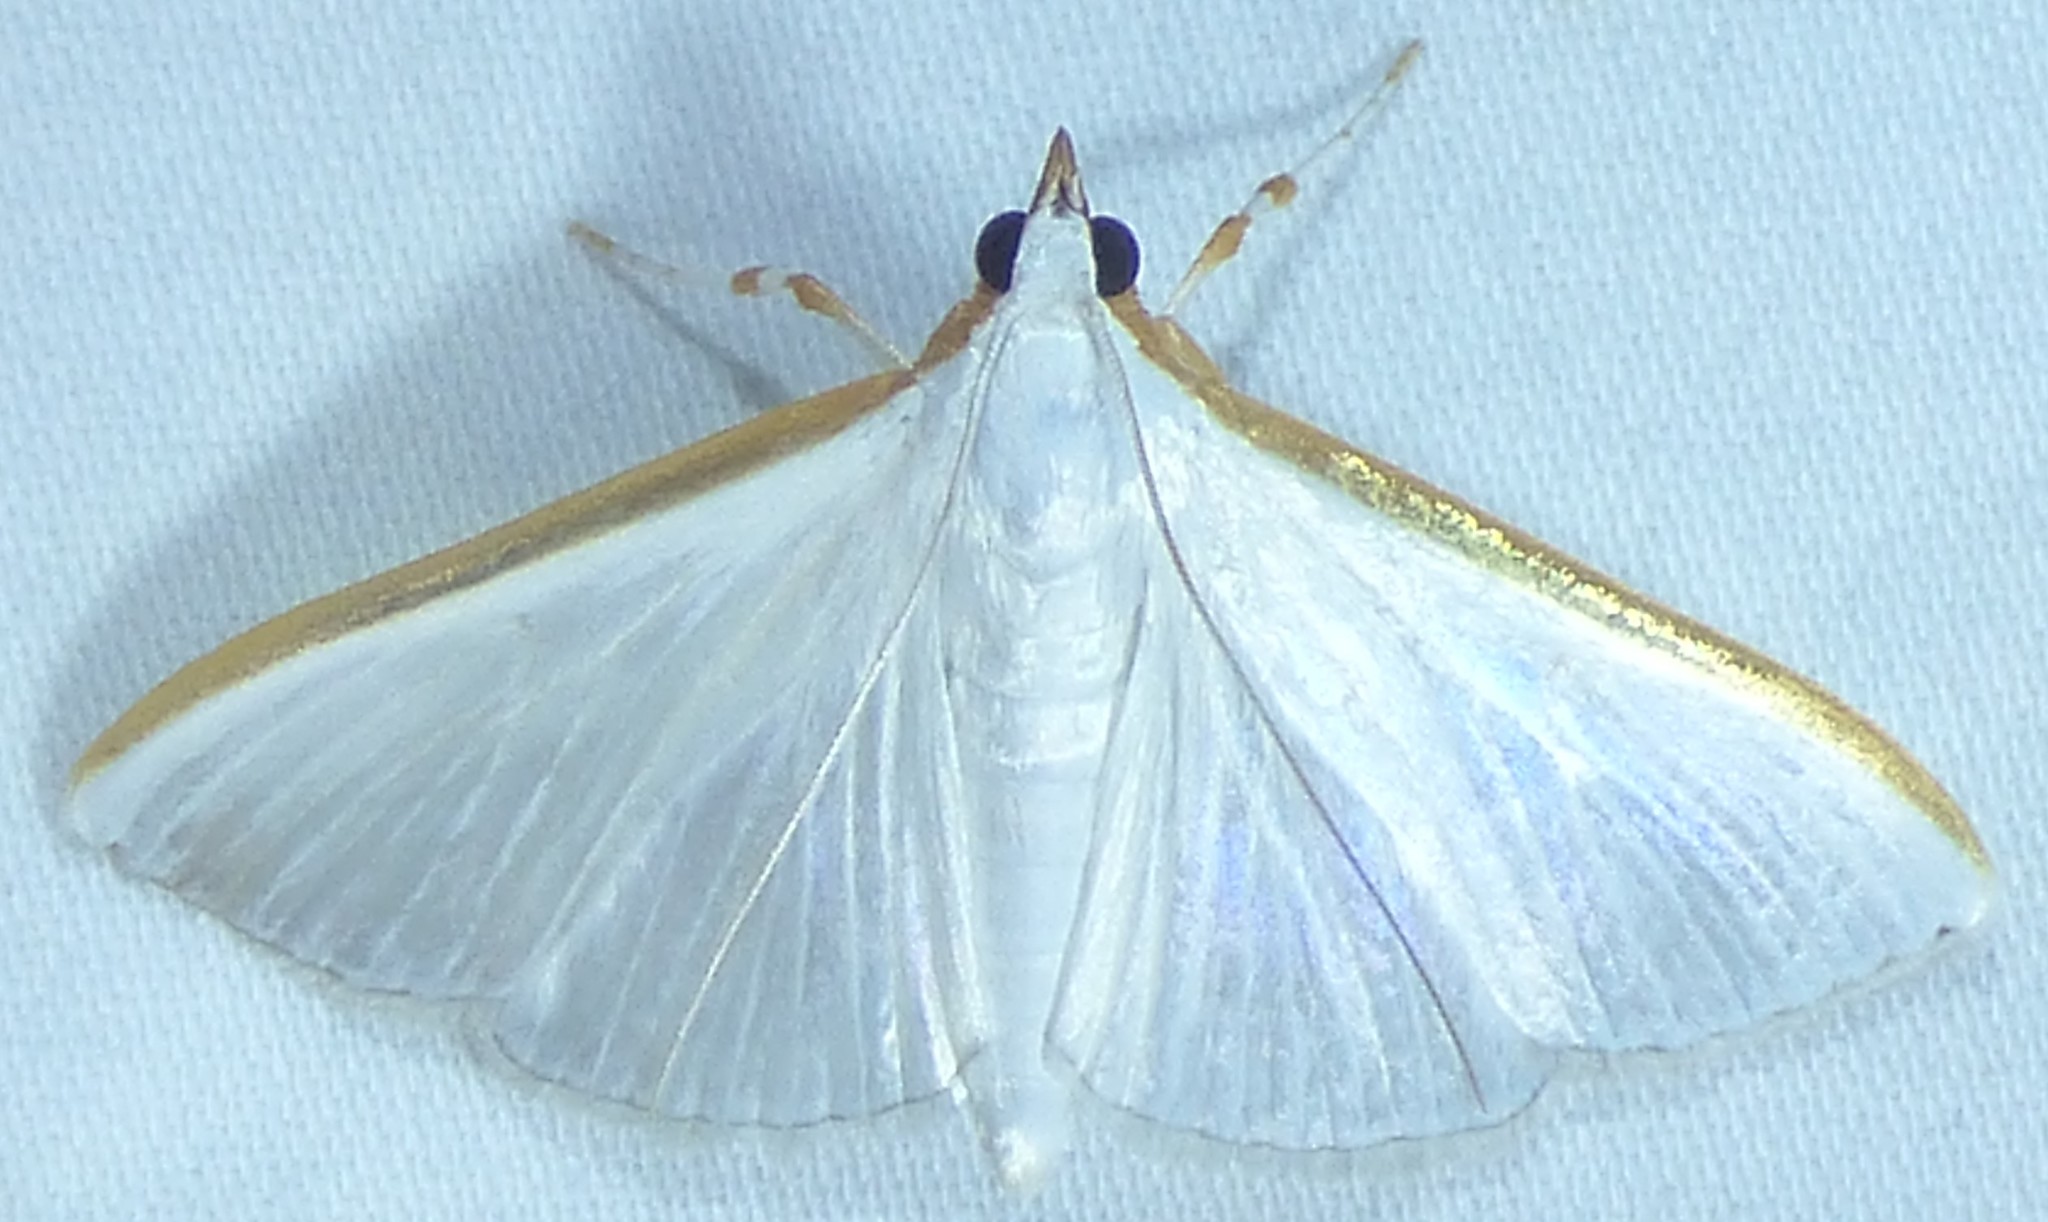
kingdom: Animalia
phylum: Arthropoda
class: Insecta
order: Lepidoptera
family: Crambidae
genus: Diaphania
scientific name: Diaphania costata
